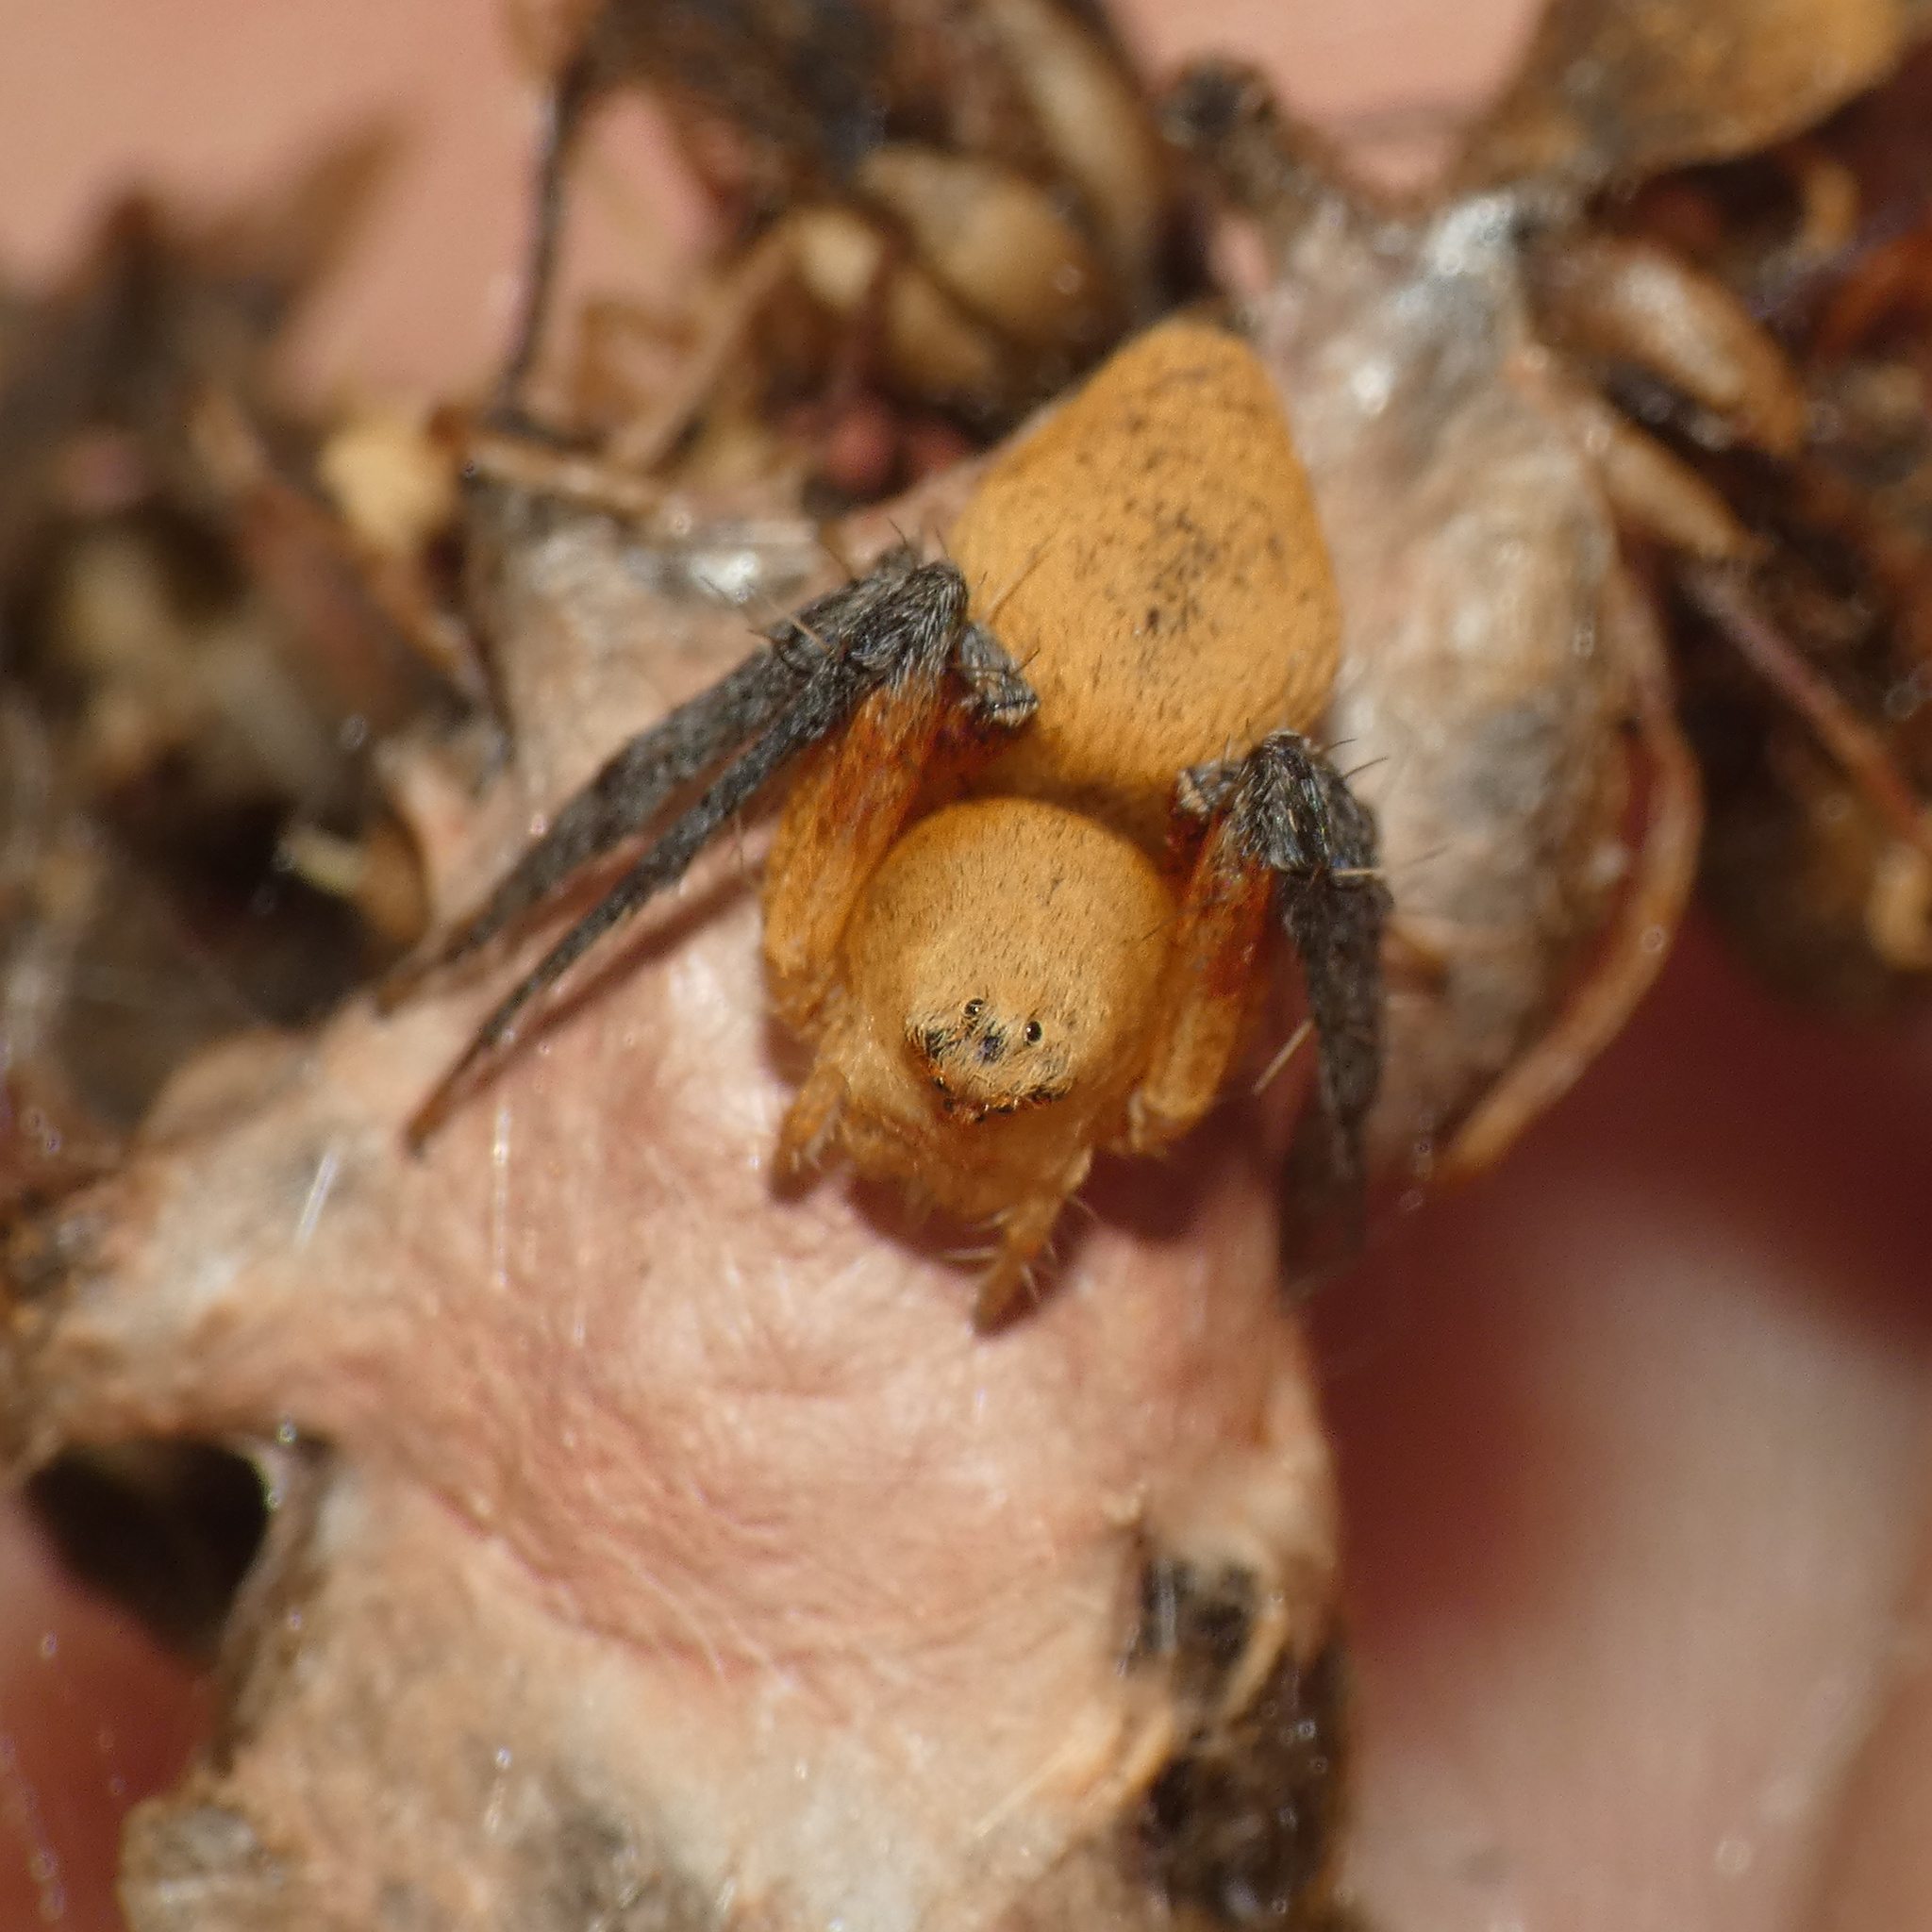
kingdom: Animalia
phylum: Arthropoda
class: Arachnida
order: Araneae
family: Oxyopidae
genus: Oxyopes
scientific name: Oxyopes flavipalpis
